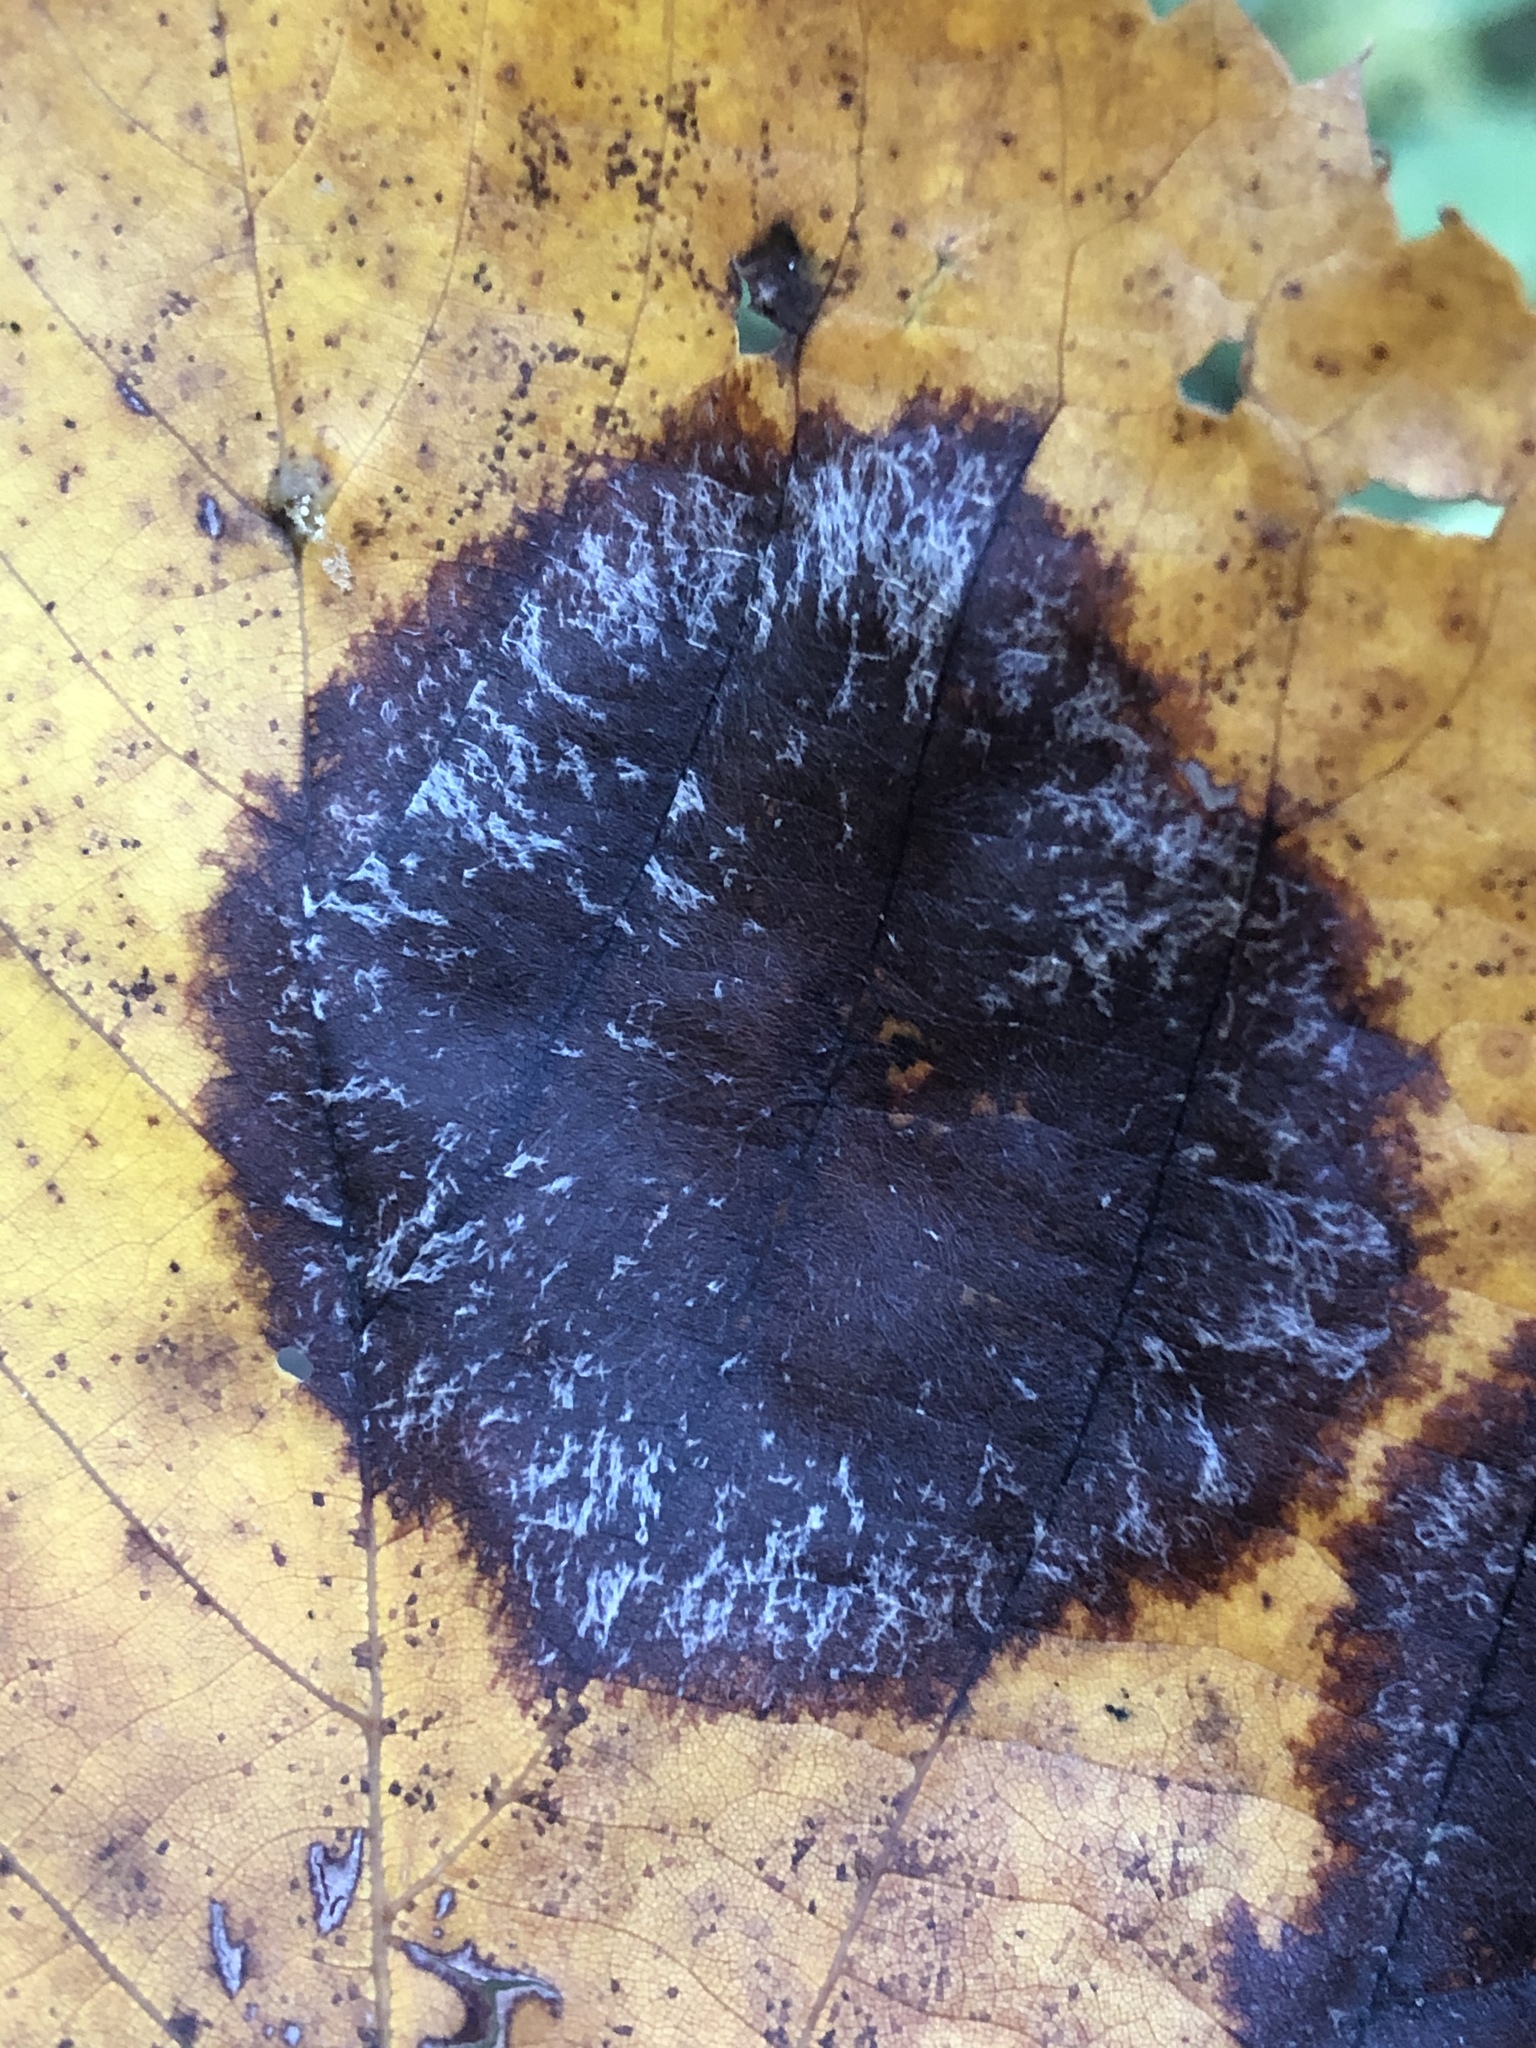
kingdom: Fungi
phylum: Ascomycota
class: Dothideomycetes
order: Pleosporales
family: Didymosphaeriaceae
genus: Paraconiothyrium
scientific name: Paraconiothyrium tiliae
